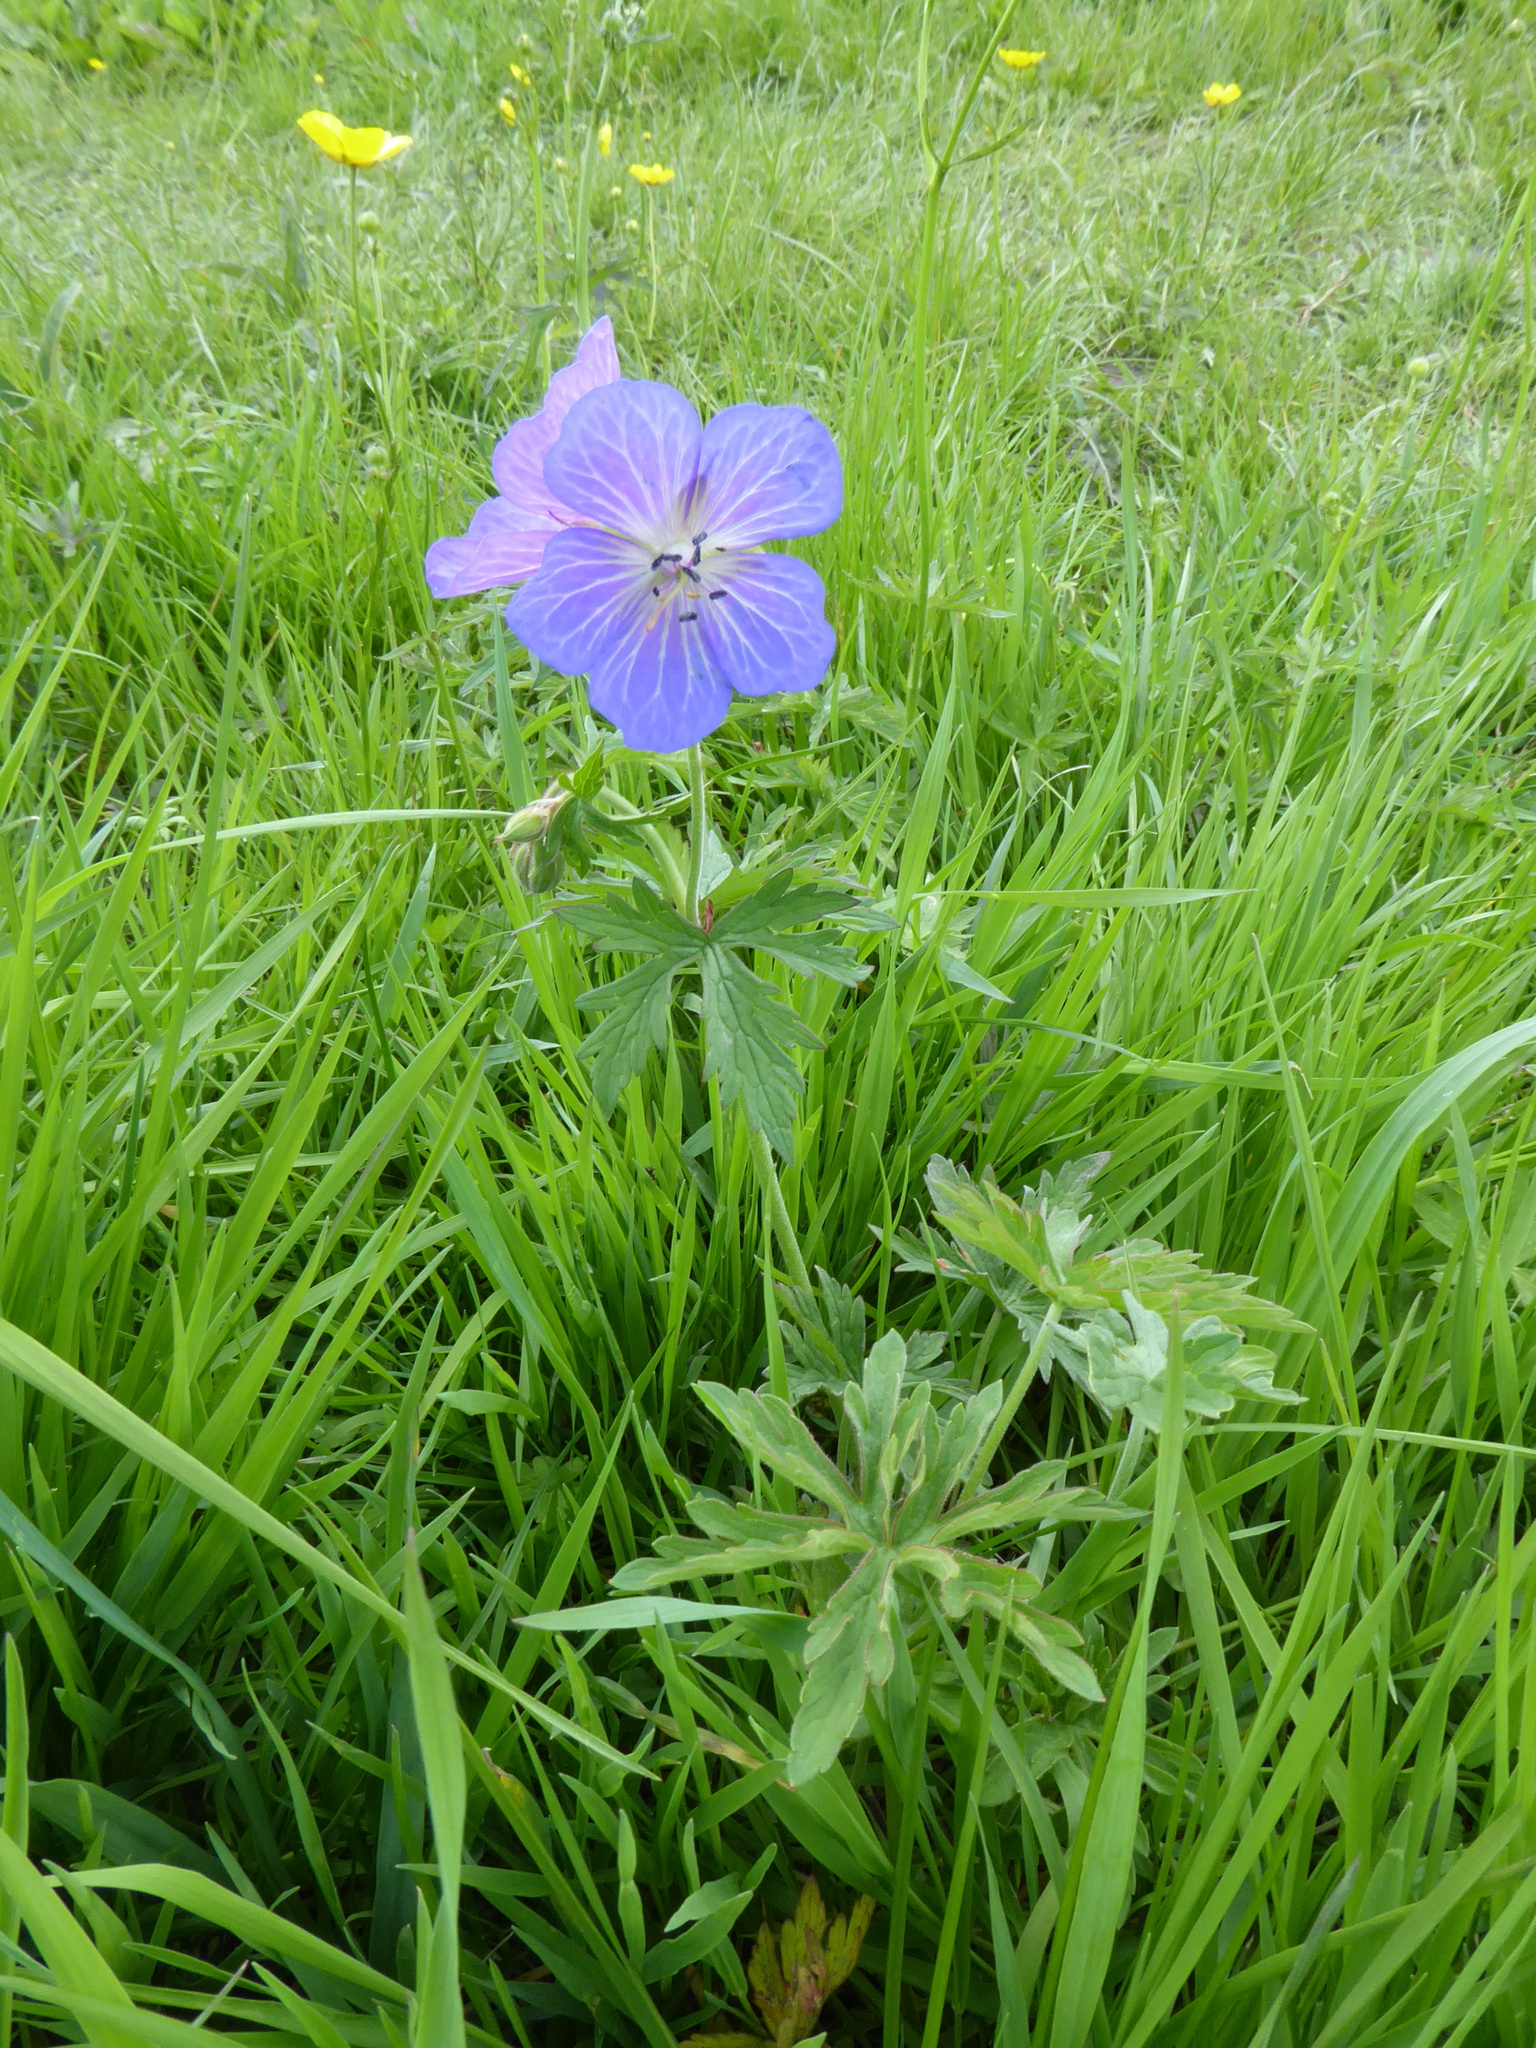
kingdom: Plantae
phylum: Tracheophyta
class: Magnoliopsida
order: Geraniales
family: Geraniaceae
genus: Geranium
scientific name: Geranium pratense
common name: Meadow crane's-bill
